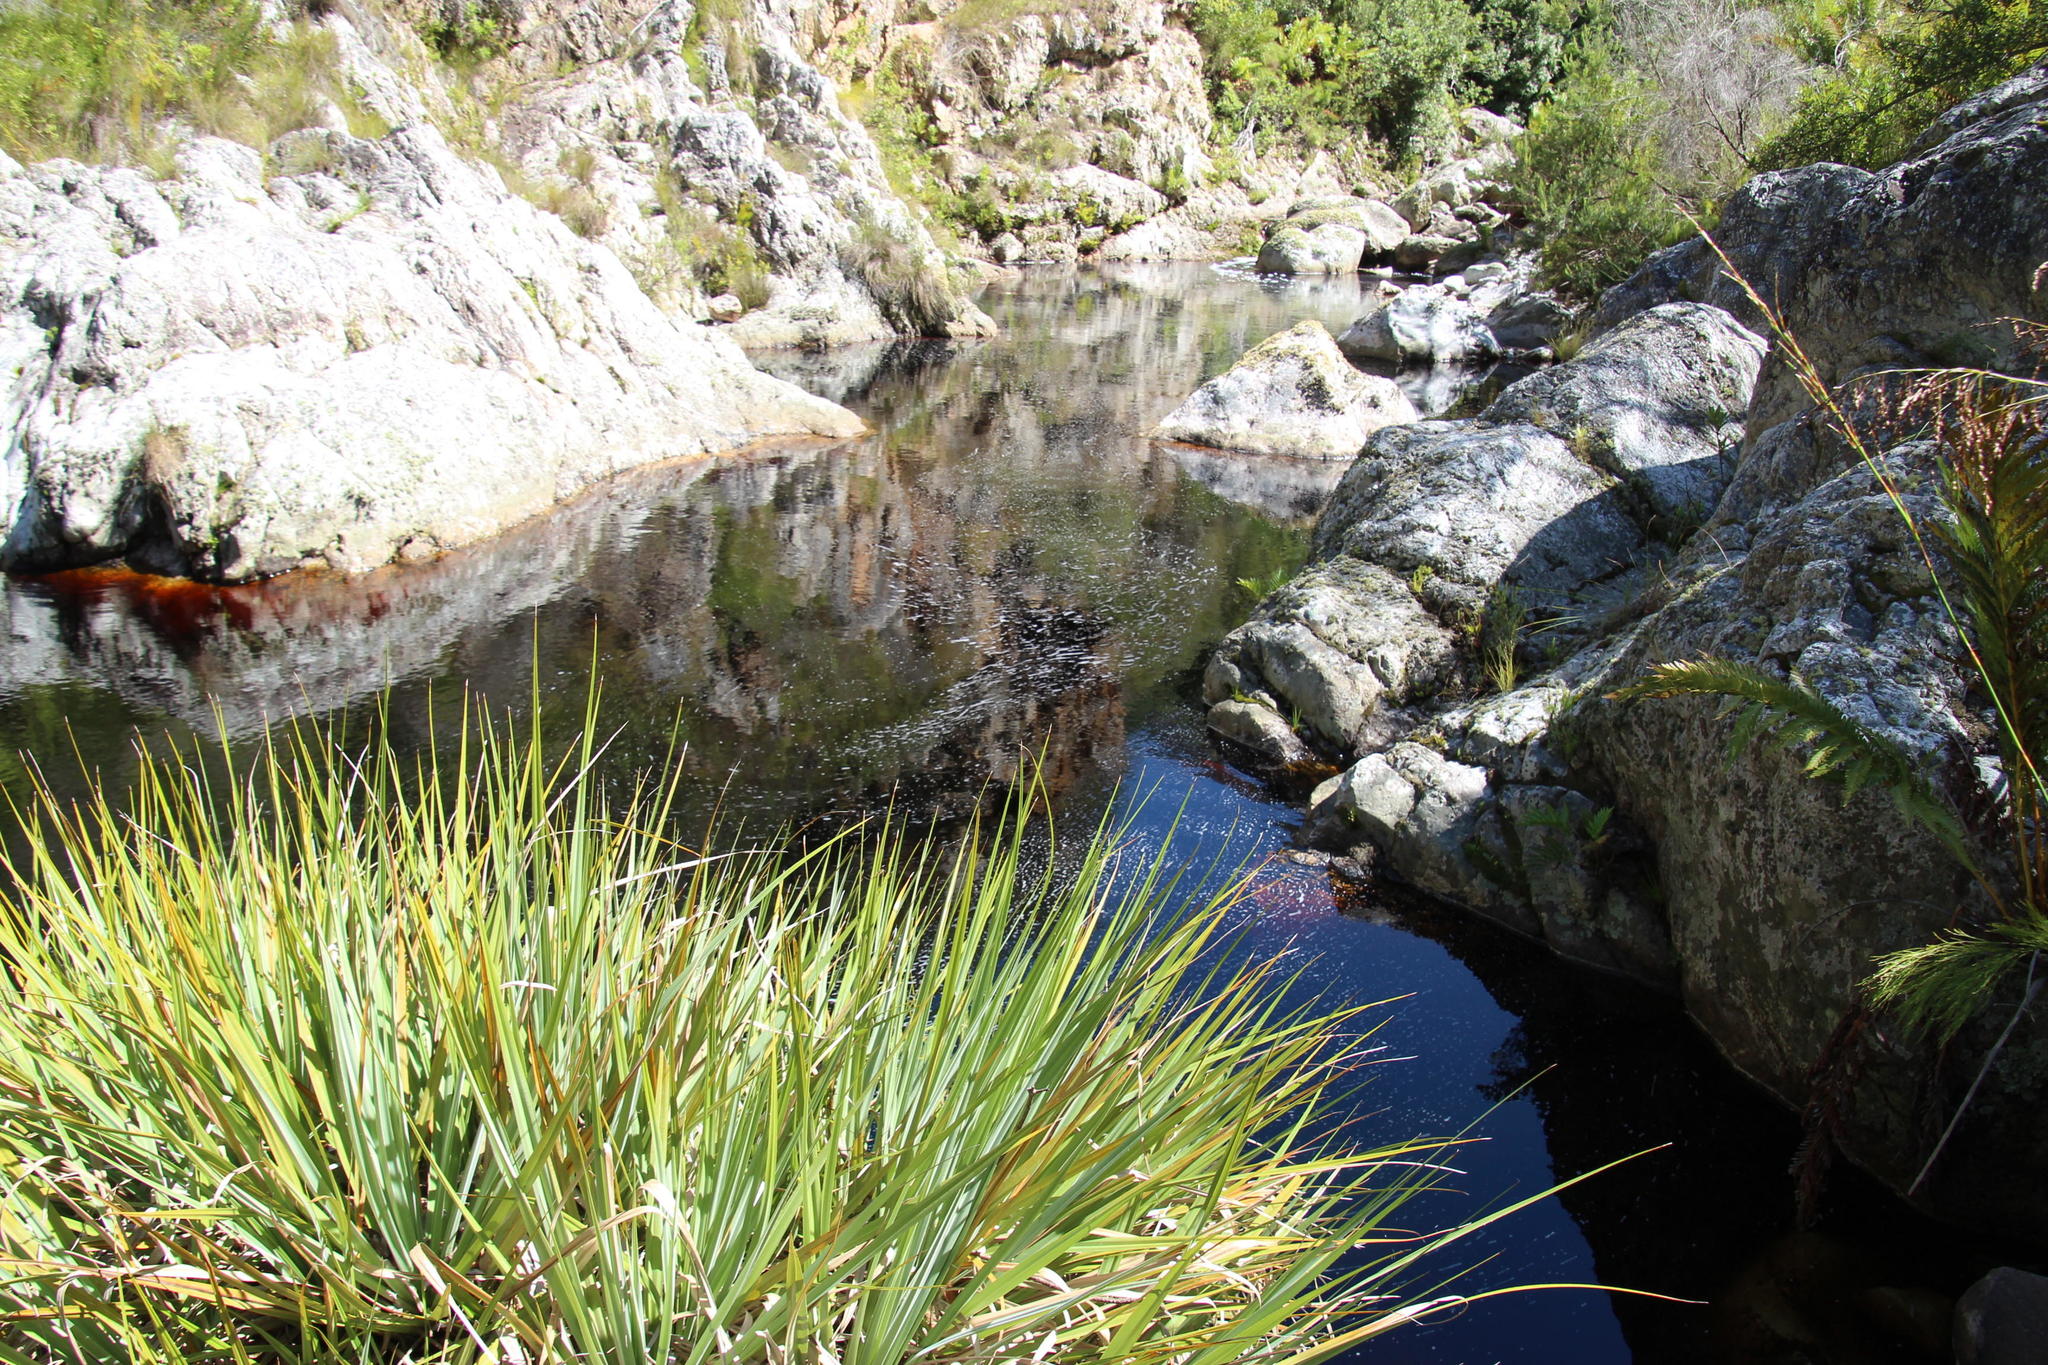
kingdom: Plantae
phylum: Tracheophyta
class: Liliopsida
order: Poales
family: Thurniaceae
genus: Prionium
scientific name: Prionium serratum
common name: Palmiet
